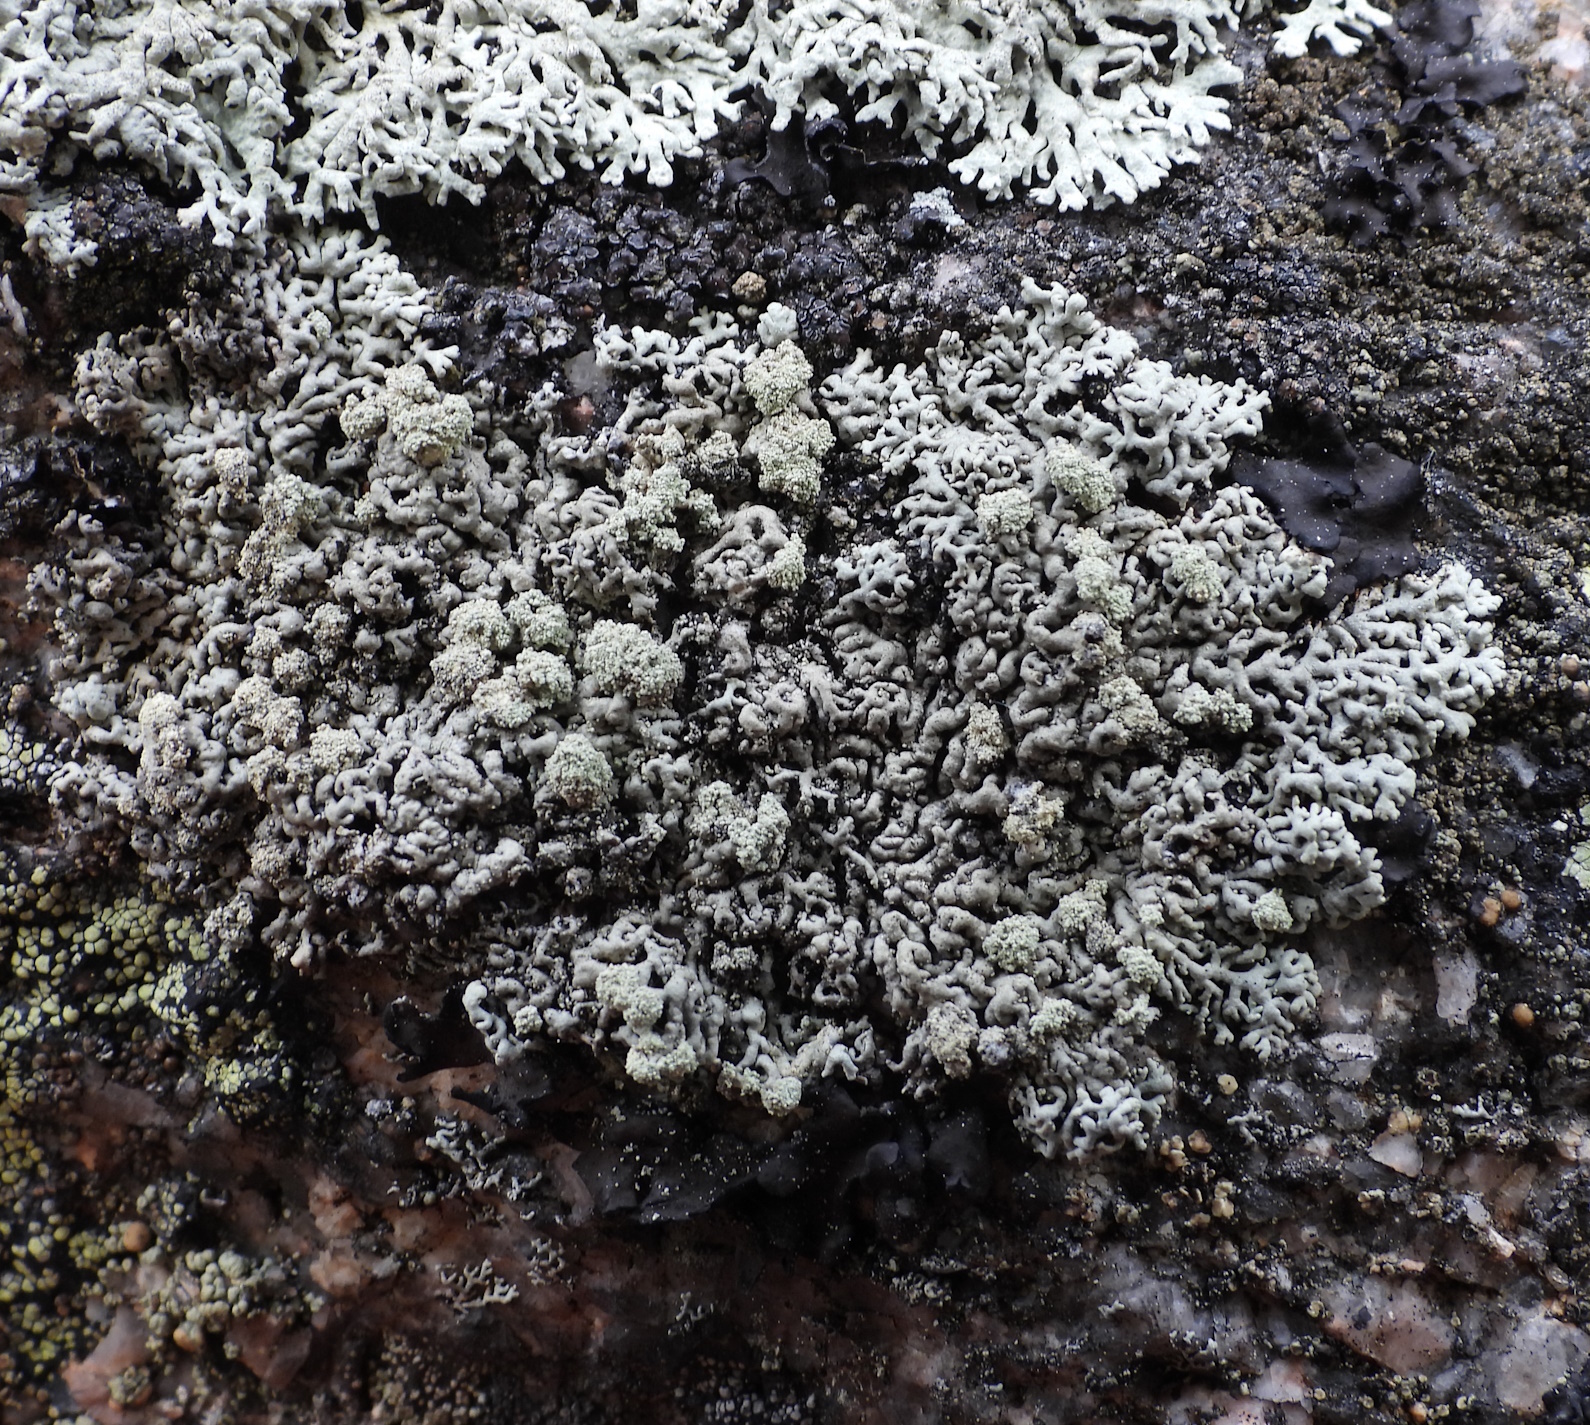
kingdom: Fungi
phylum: Ascomycota
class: Lecanoromycetes
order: Lecanorales
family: Parmeliaceae
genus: Arctoparmelia
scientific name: Arctoparmelia incurva
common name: Bent ring lichen
